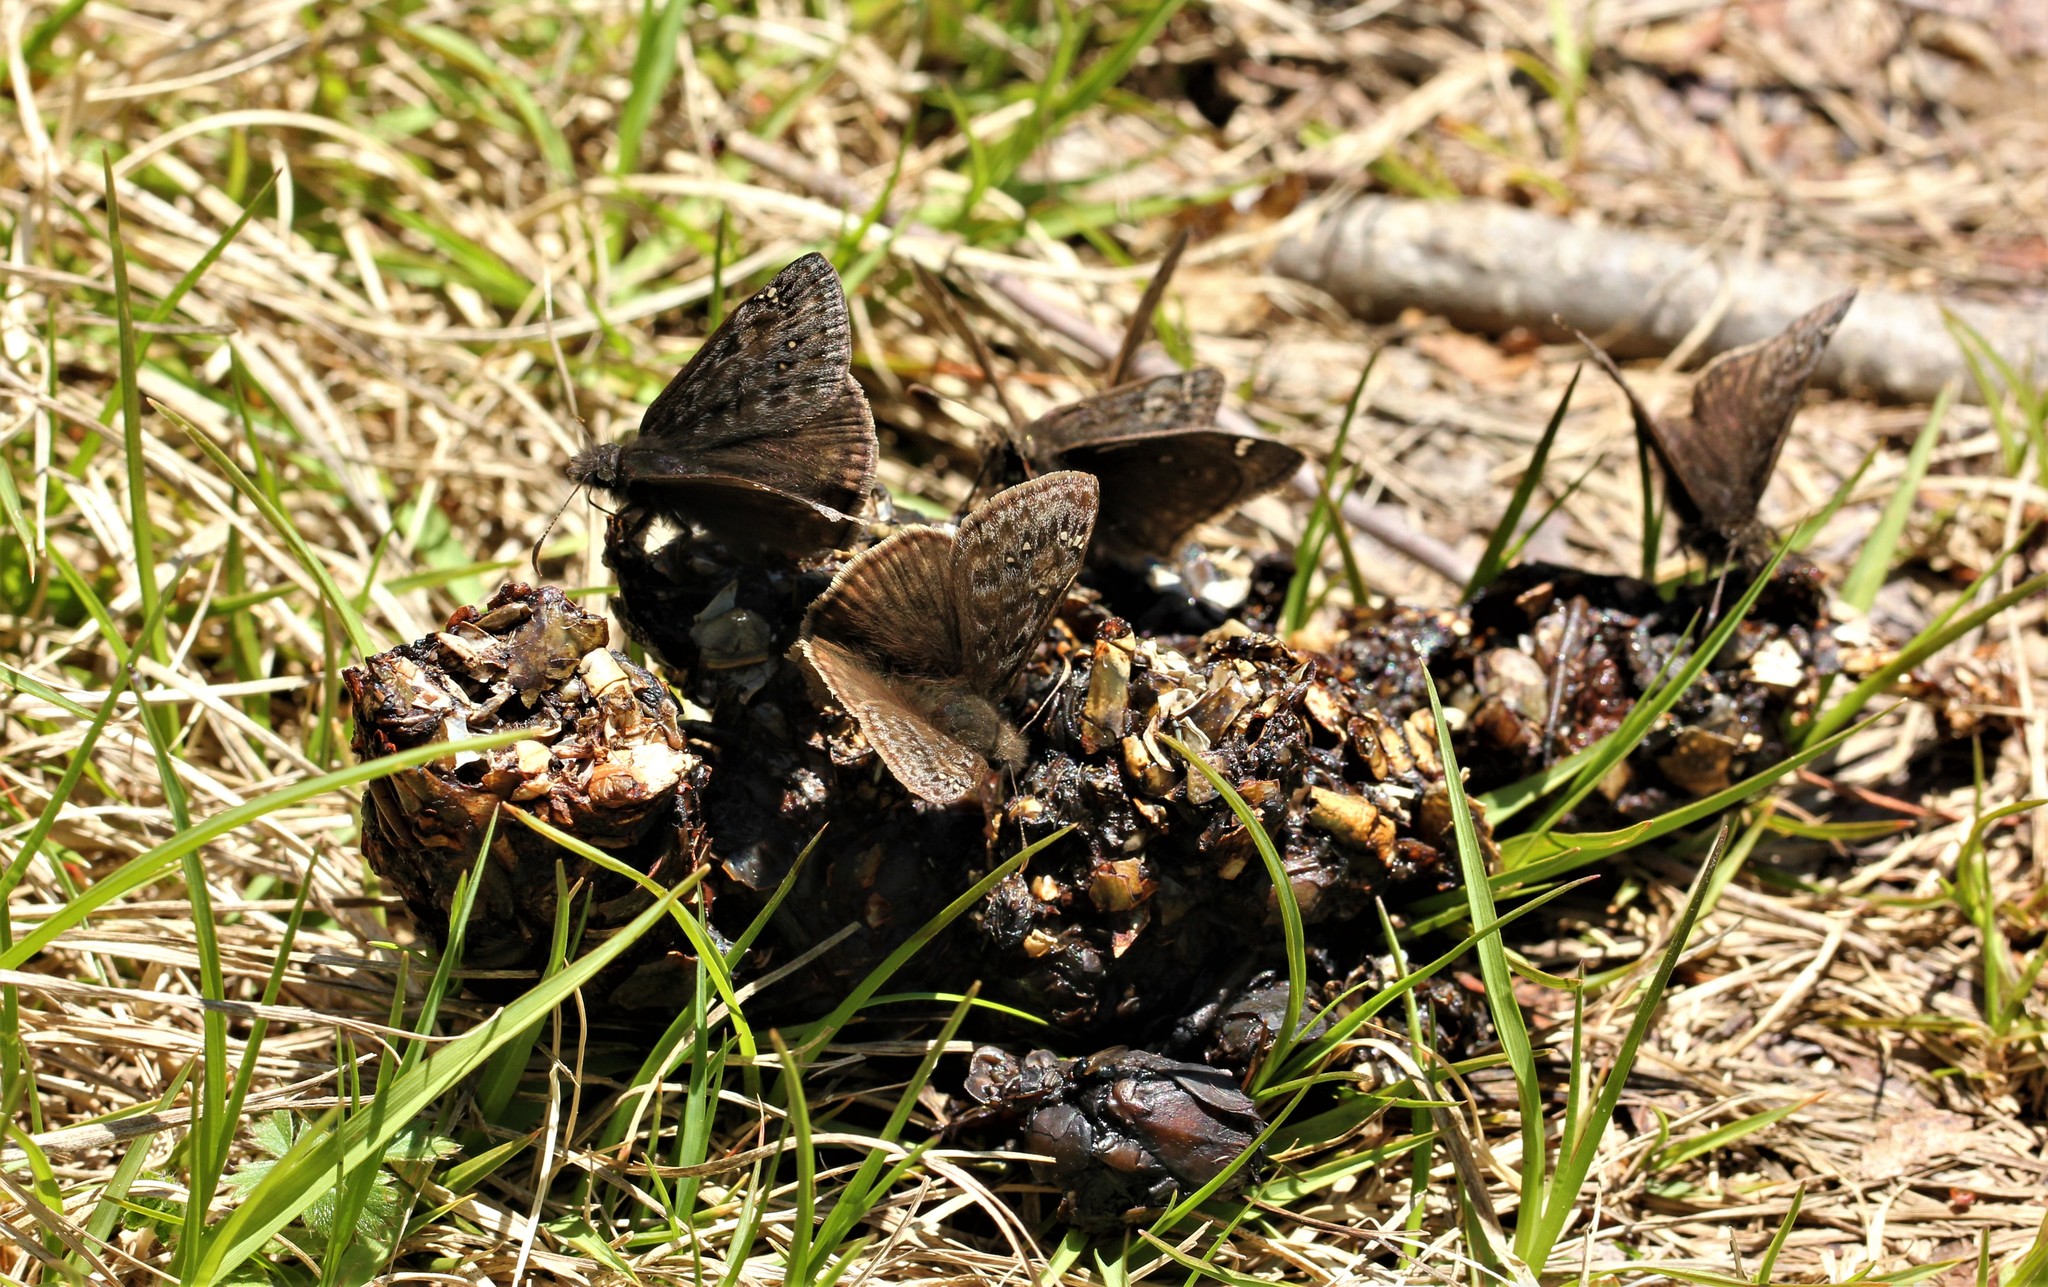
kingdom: Animalia
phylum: Arthropoda
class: Insecta
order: Lepidoptera
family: Hesperiidae
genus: Erynnis
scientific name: Erynnis juvenalis
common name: Juvenal's duskywing
